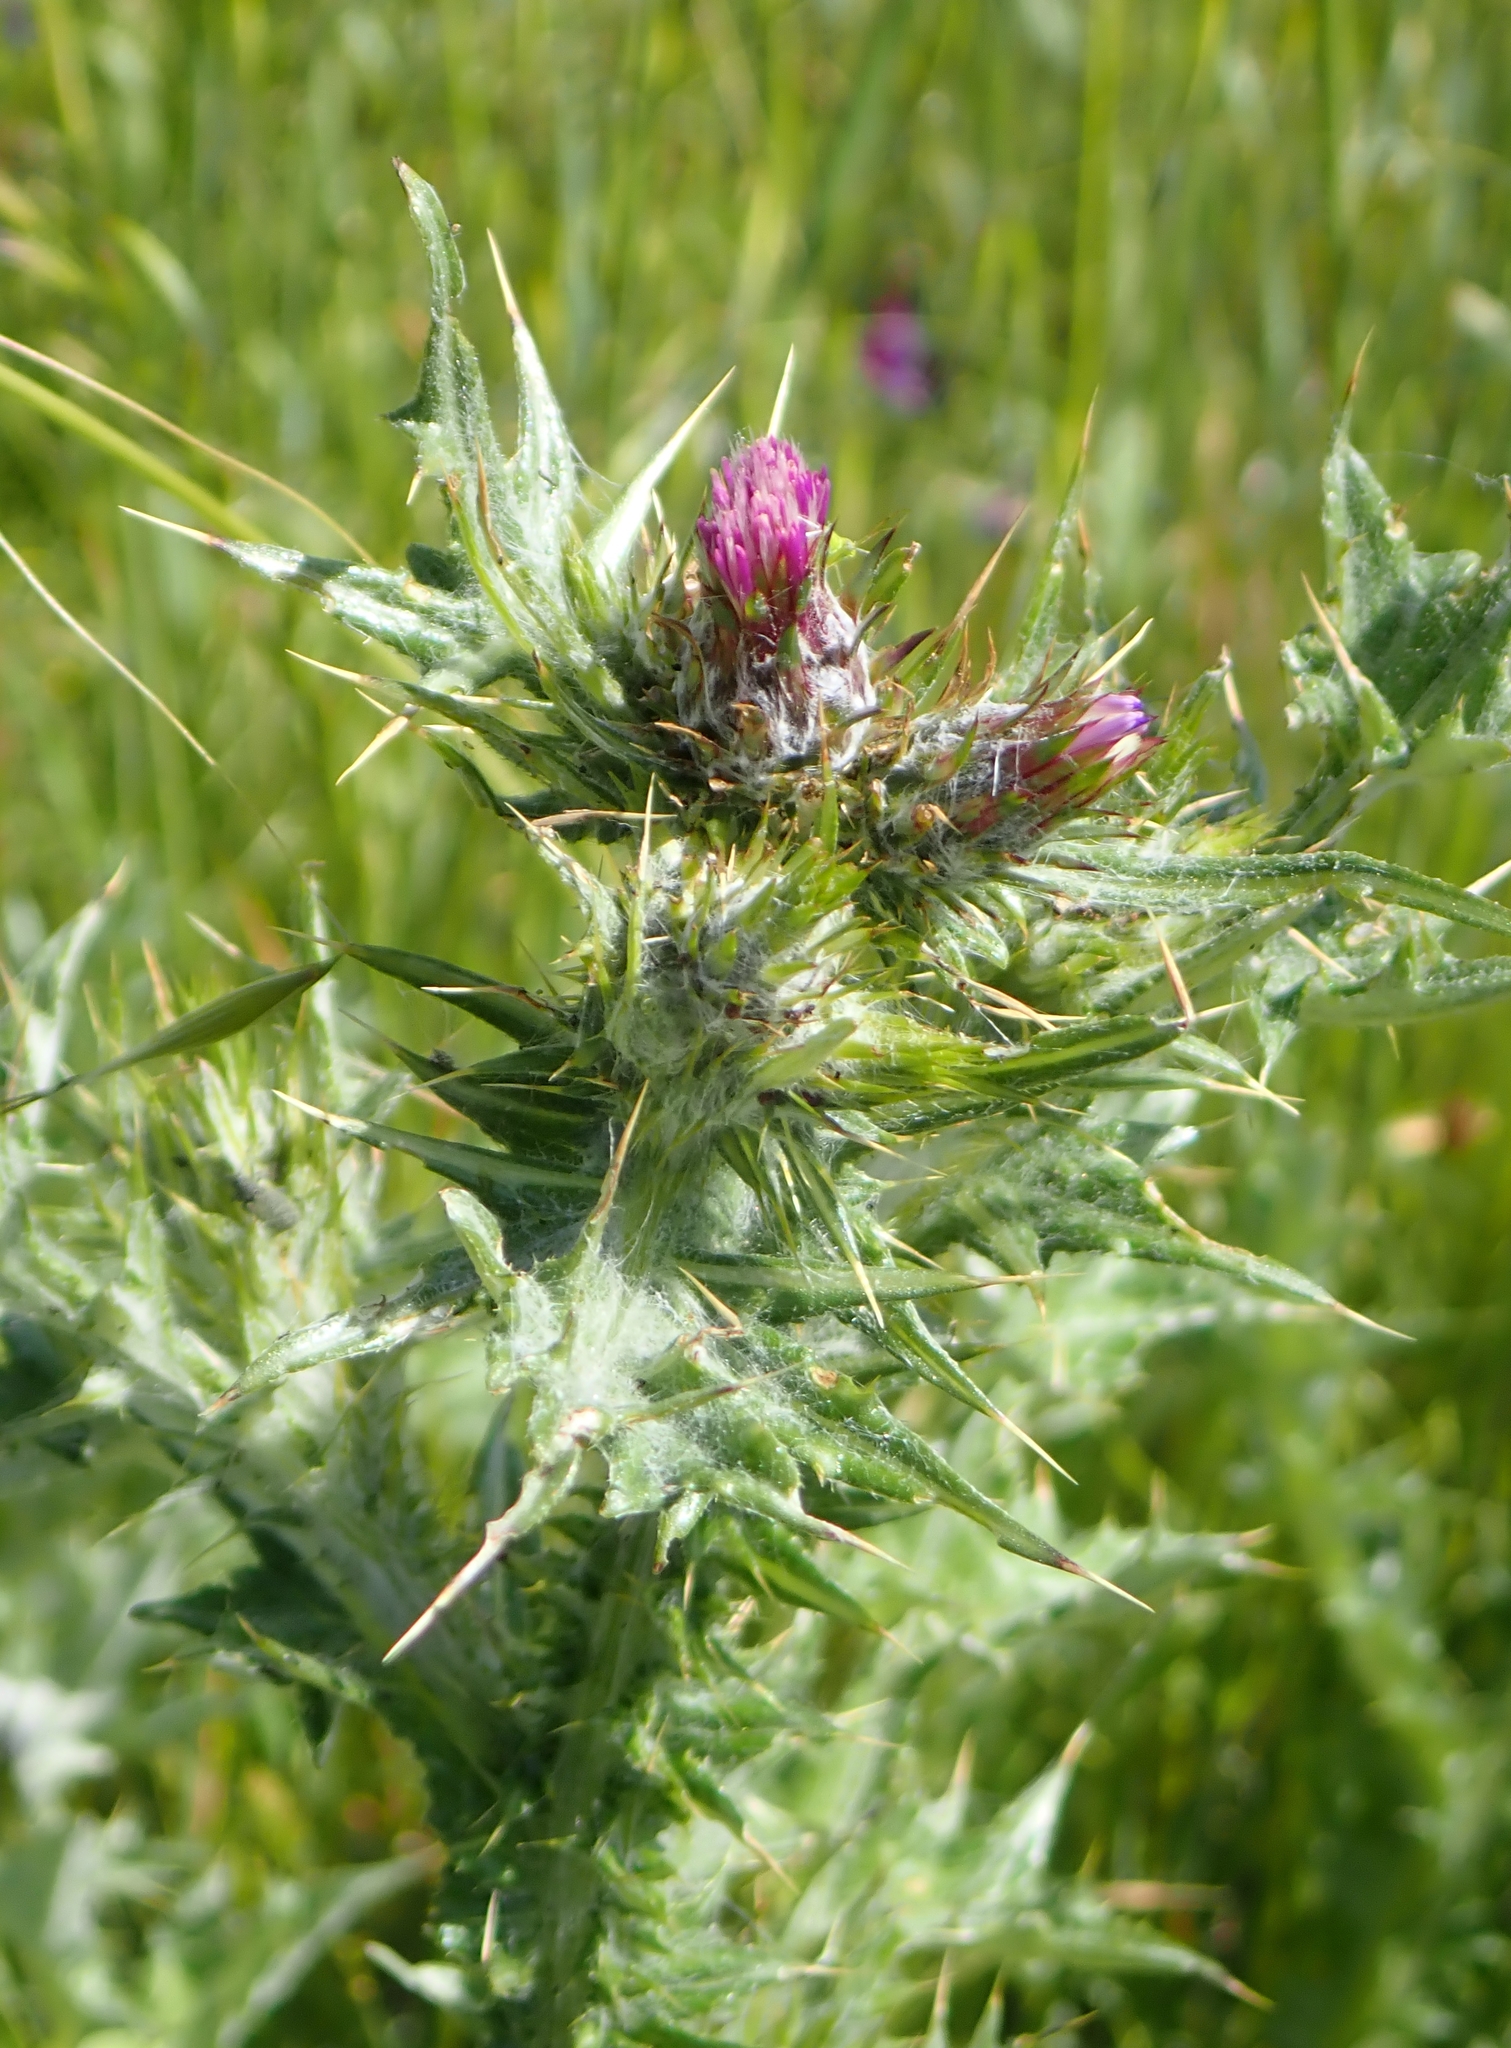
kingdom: Plantae
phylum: Tracheophyta
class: Magnoliopsida
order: Asterales
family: Asteraceae
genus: Carduus
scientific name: Carduus pycnocephalus
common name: Plymouth thistle
